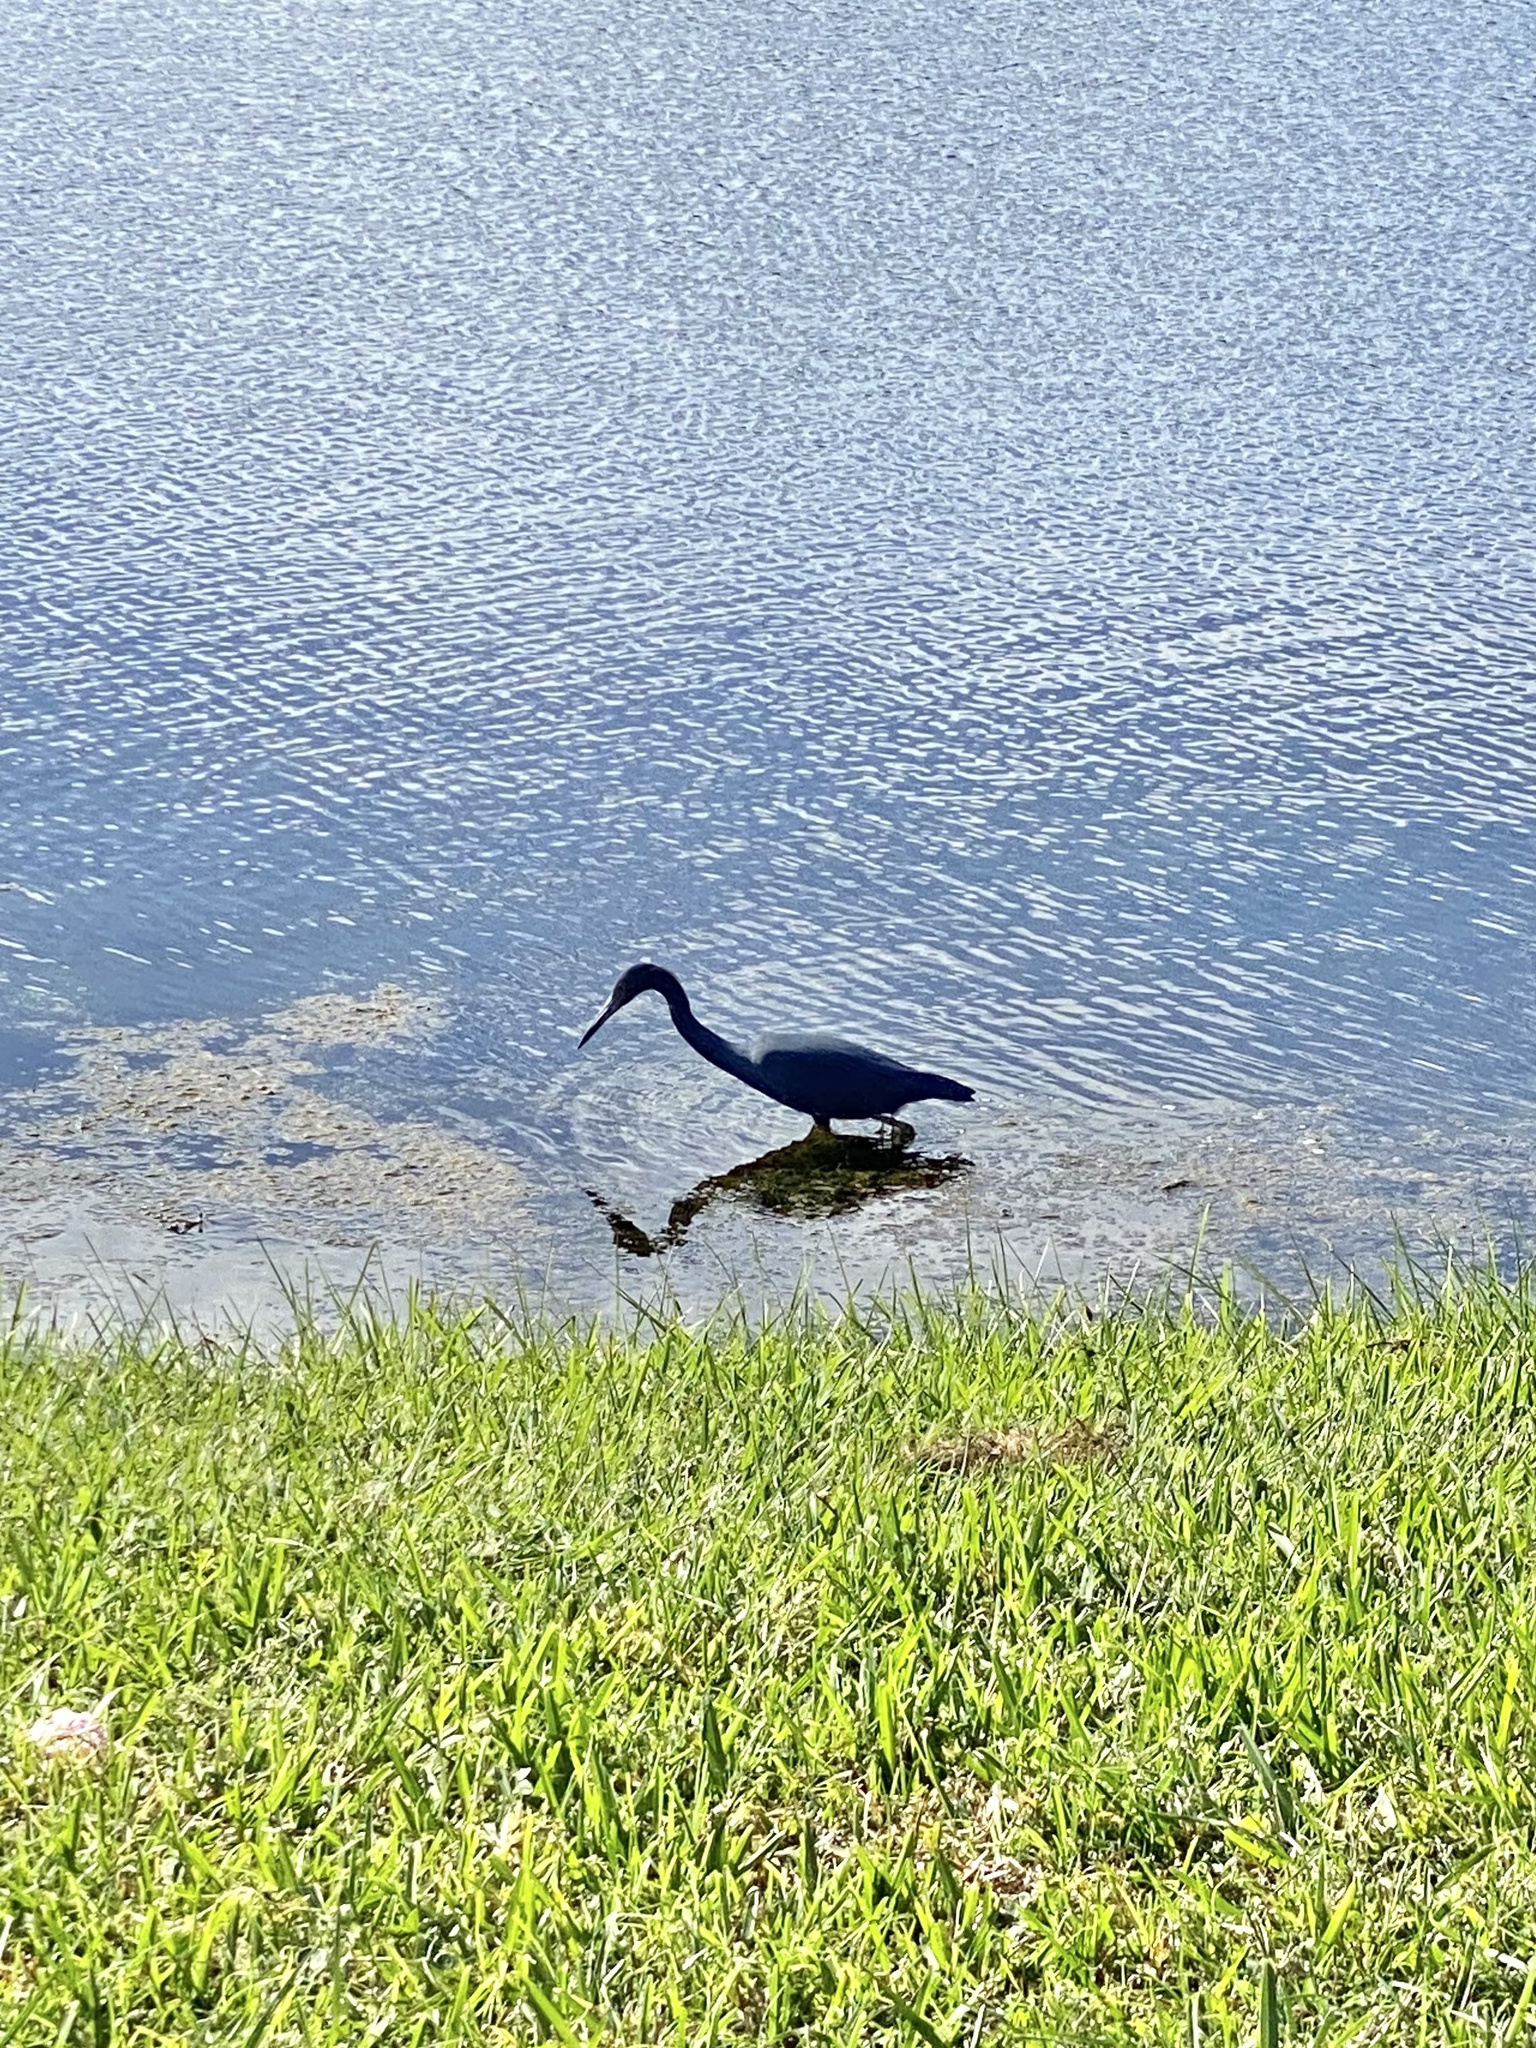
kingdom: Animalia
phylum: Chordata
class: Aves
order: Pelecaniformes
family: Ardeidae
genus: Egretta
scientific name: Egretta caerulea
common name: Little blue heron
